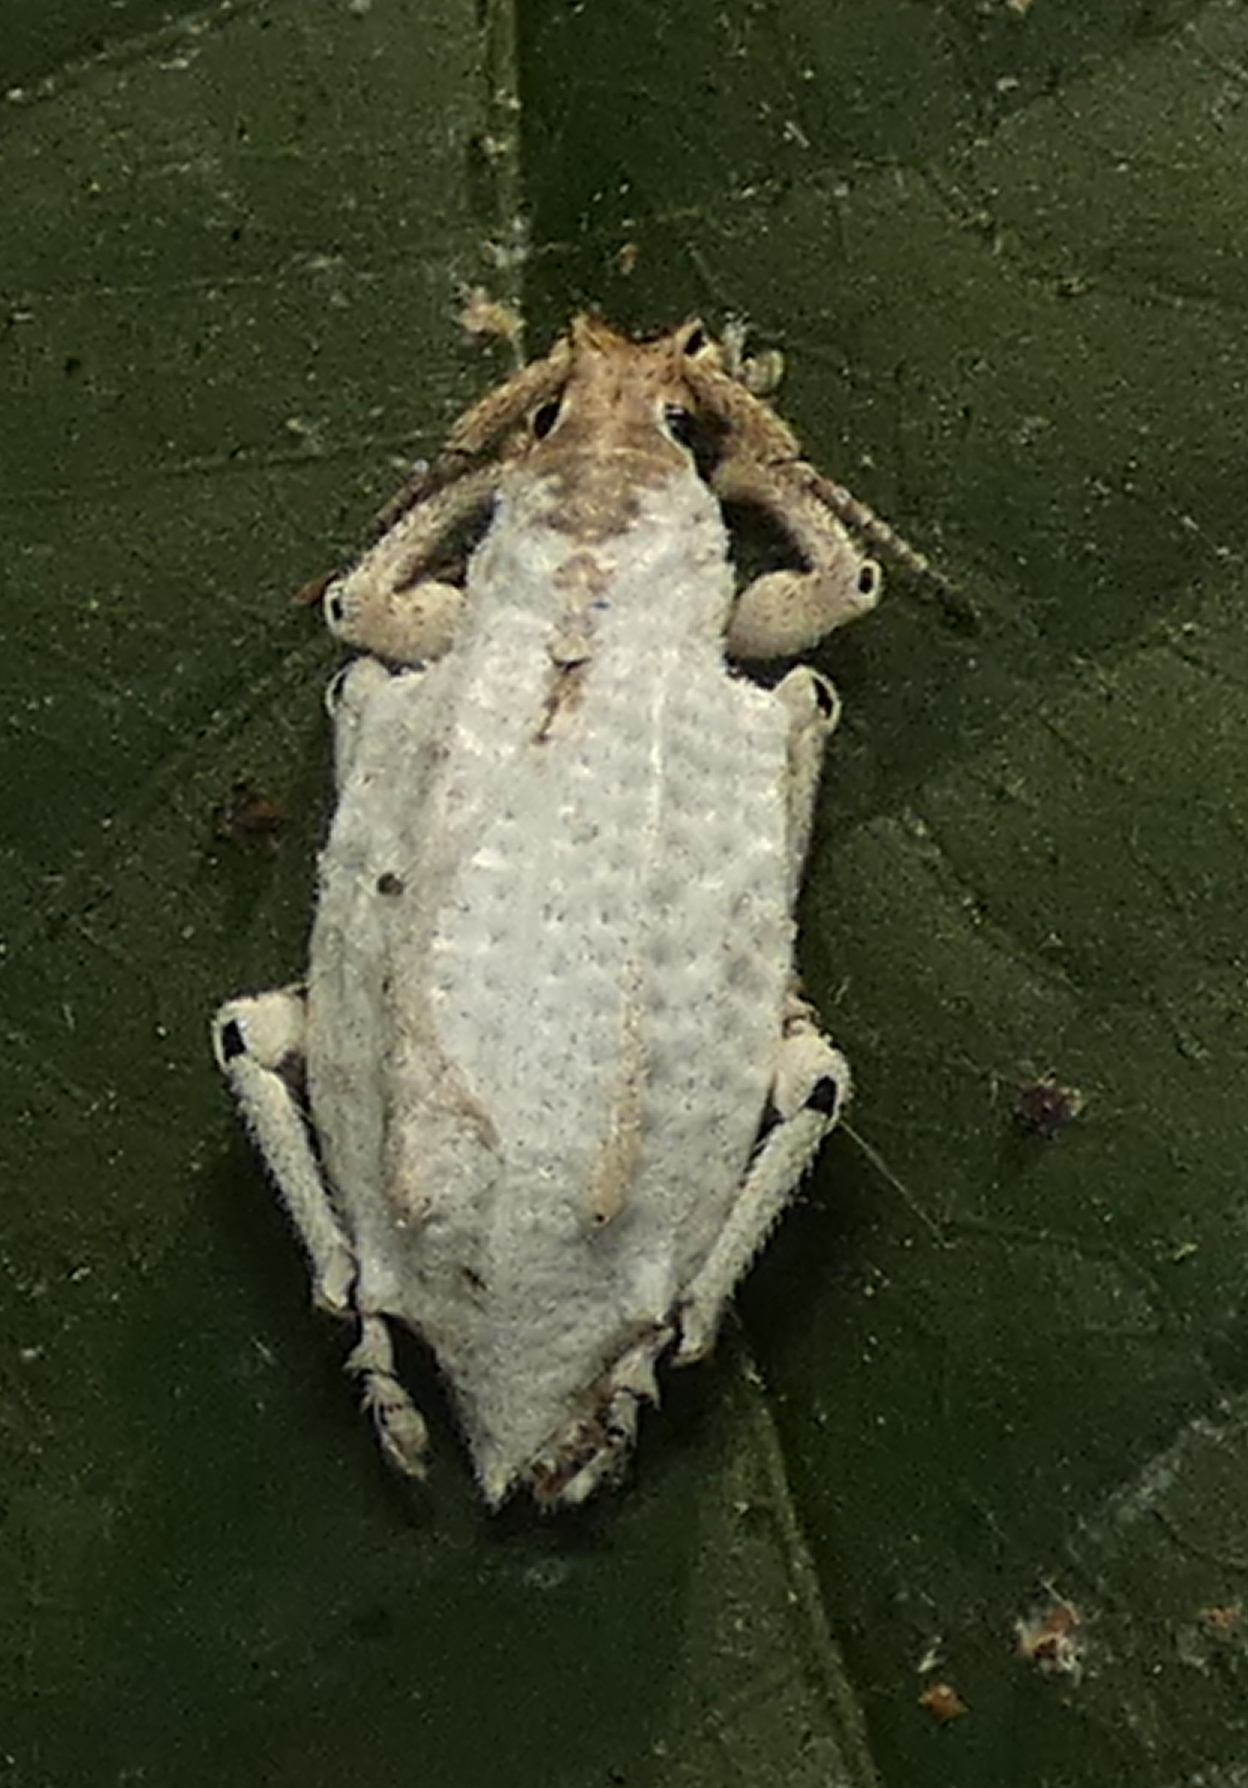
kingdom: Animalia
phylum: Arthropoda
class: Insecta
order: Coleoptera
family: Curculionidae
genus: Compsus
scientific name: Compsus niveus
